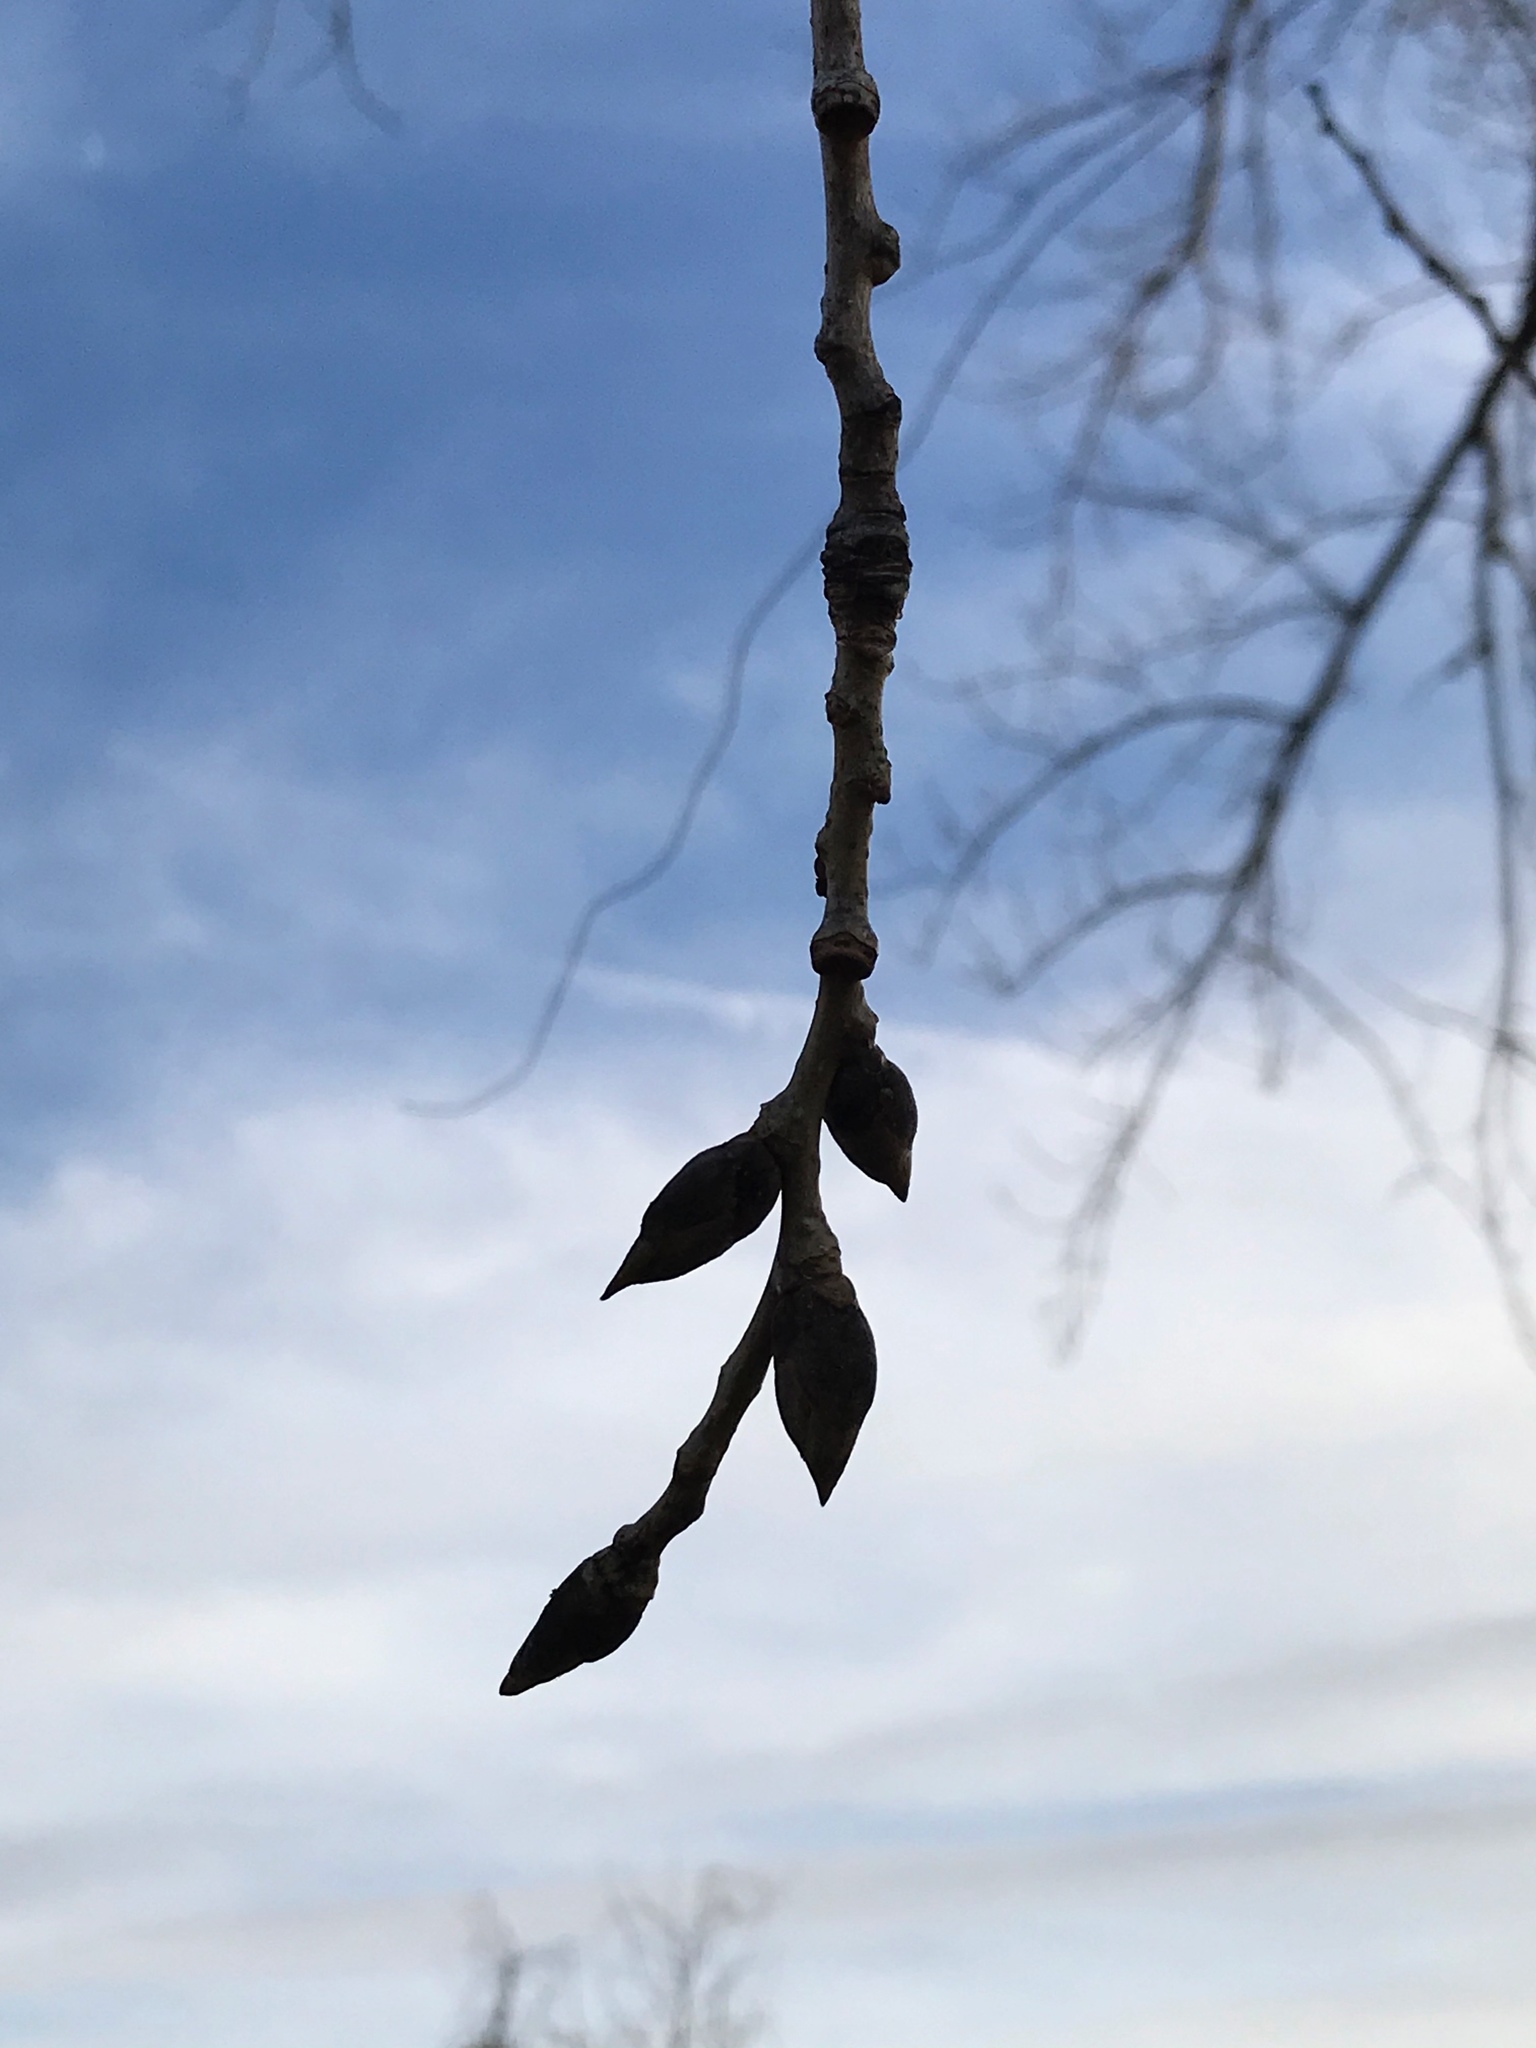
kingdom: Plantae
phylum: Tracheophyta
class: Magnoliopsida
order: Malpighiales
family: Salicaceae
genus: Populus
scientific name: Populus deltoides
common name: Eastern cottonwood
